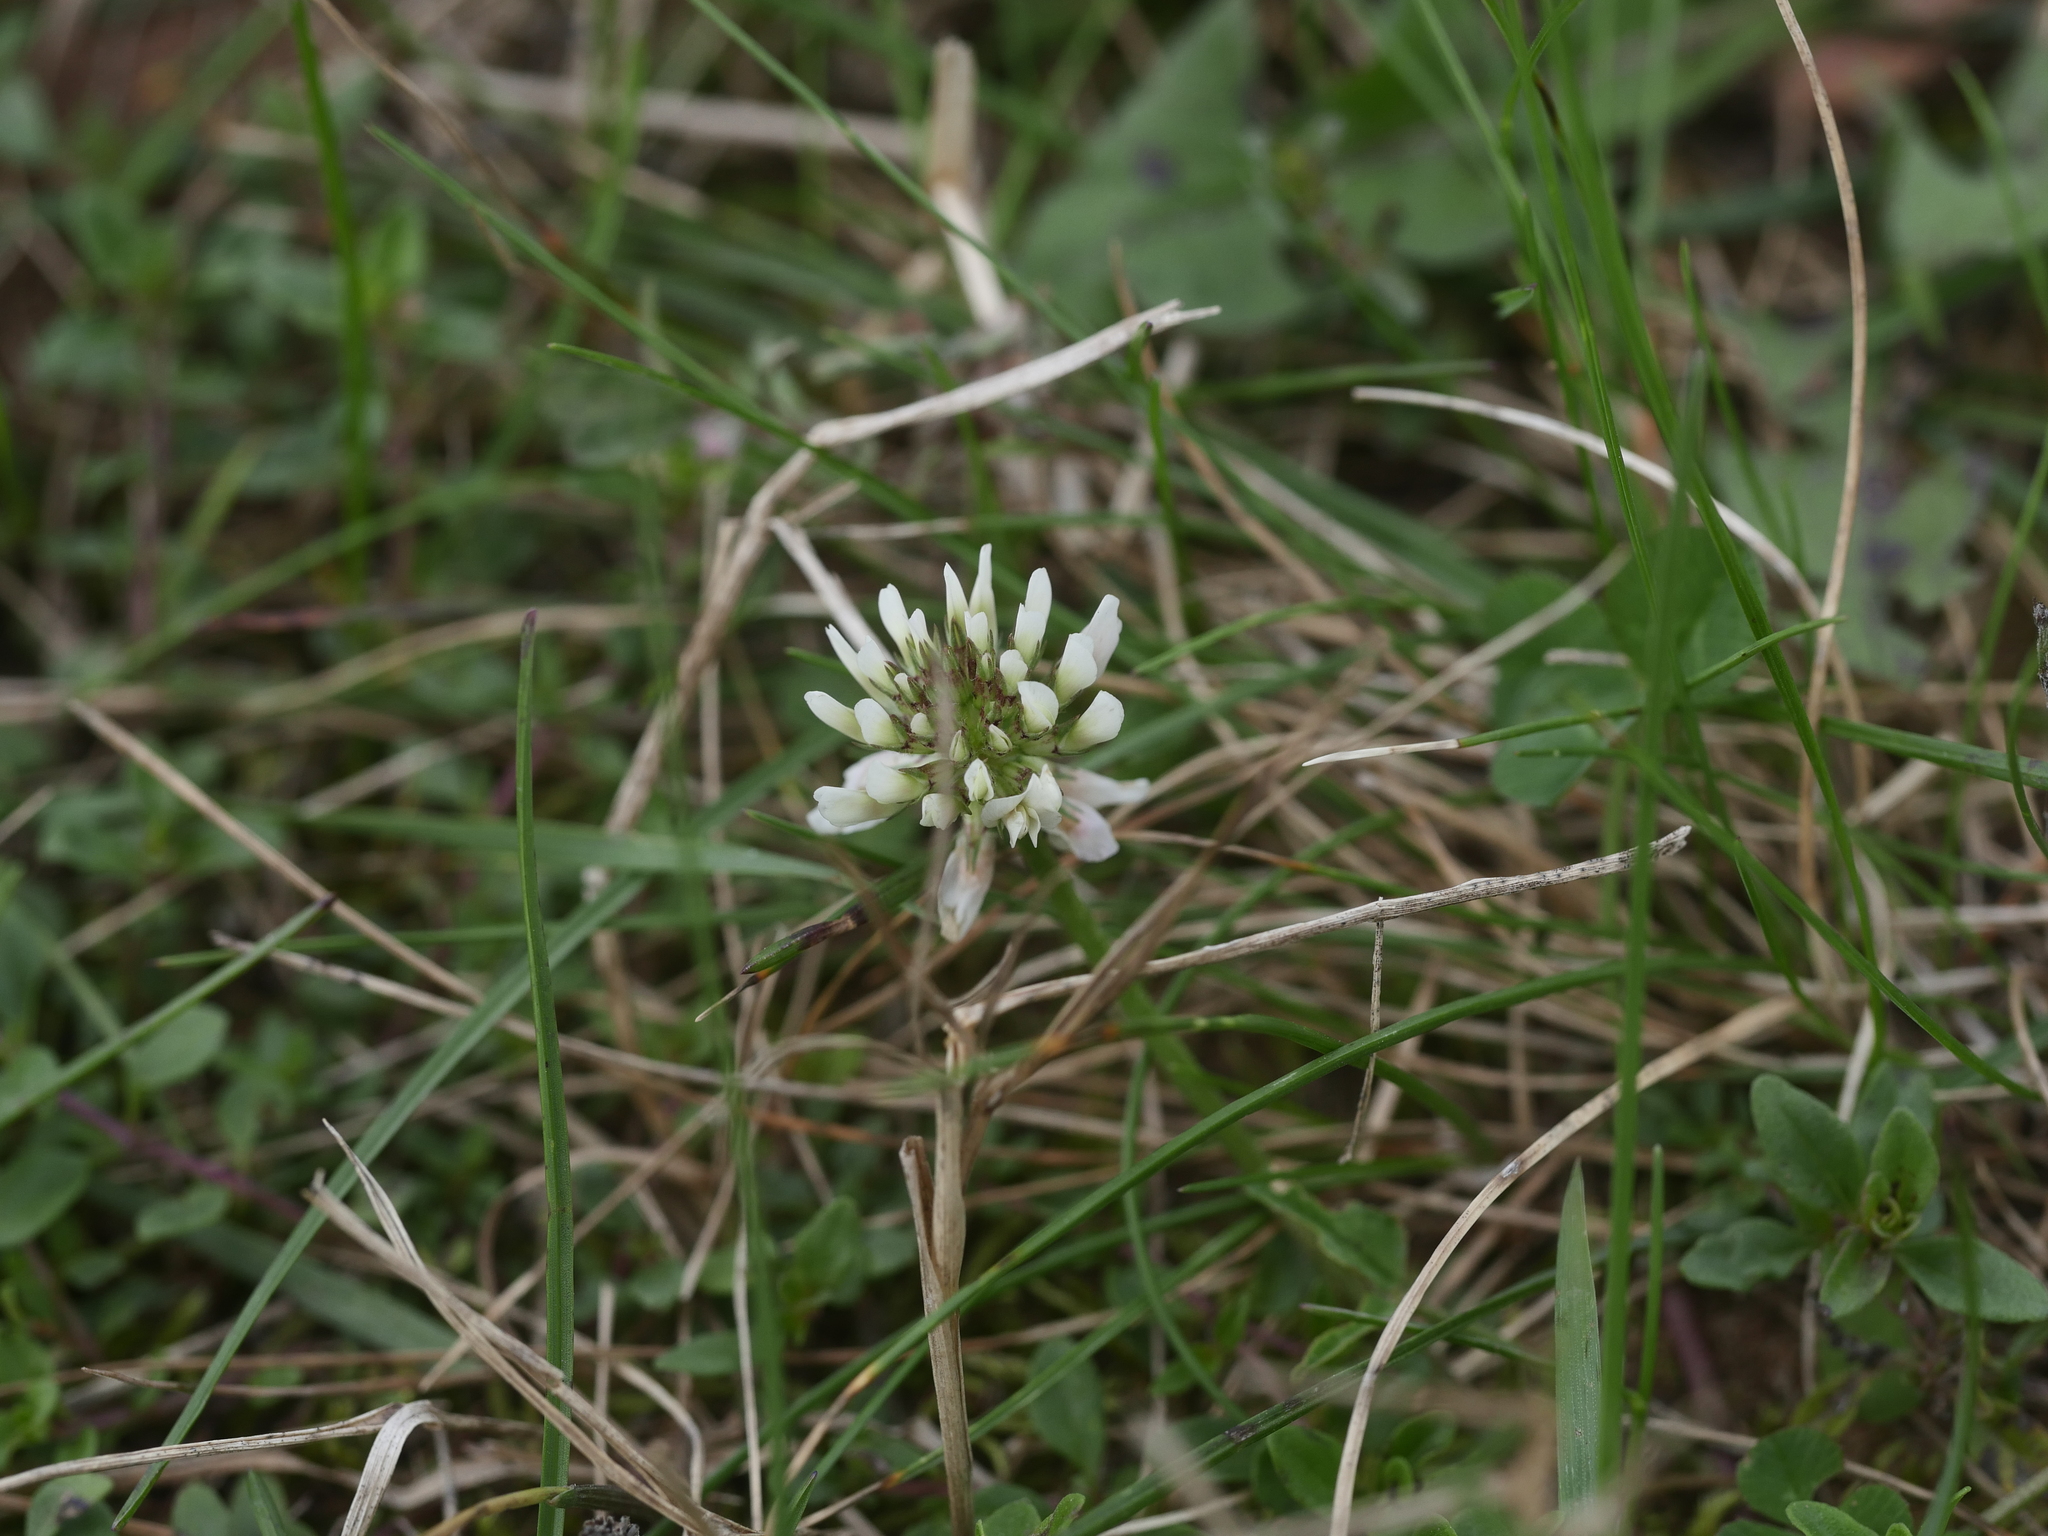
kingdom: Plantae
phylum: Tracheophyta
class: Magnoliopsida
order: Fabales
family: Fabaceae
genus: Trifolium
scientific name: Trifolium repens
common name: White clover
